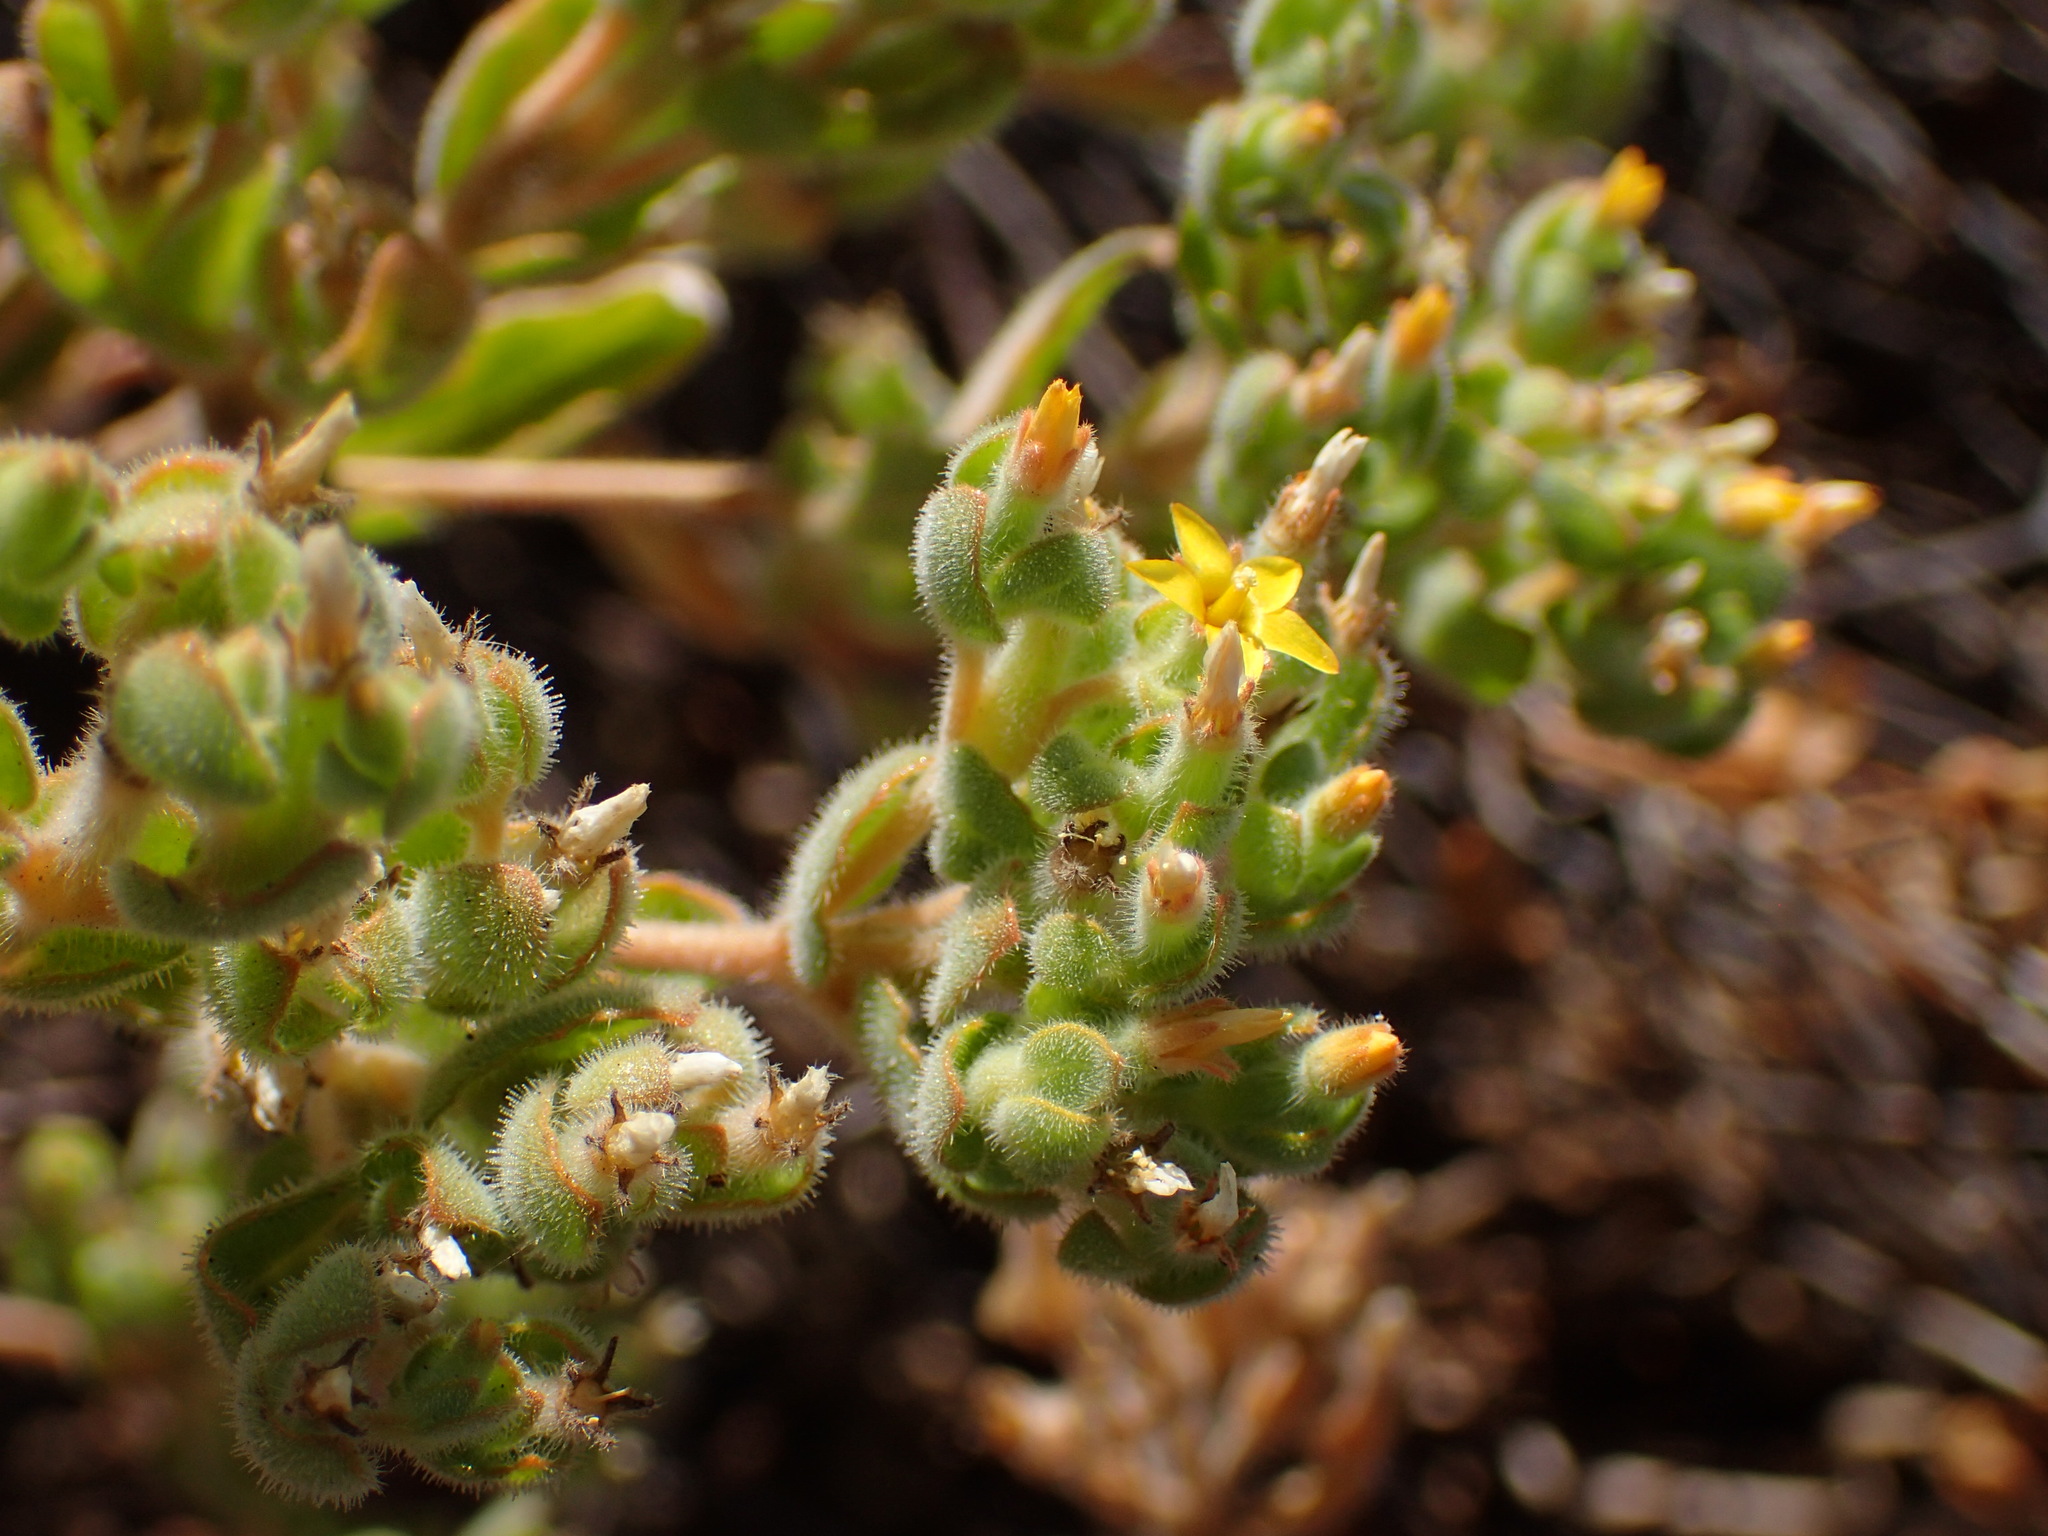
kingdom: Plantae
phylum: Tracheophyta
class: Magnoliopsida
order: Cornales
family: Loasaceae
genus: Mentzelia
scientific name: Mentzelia micrantha
